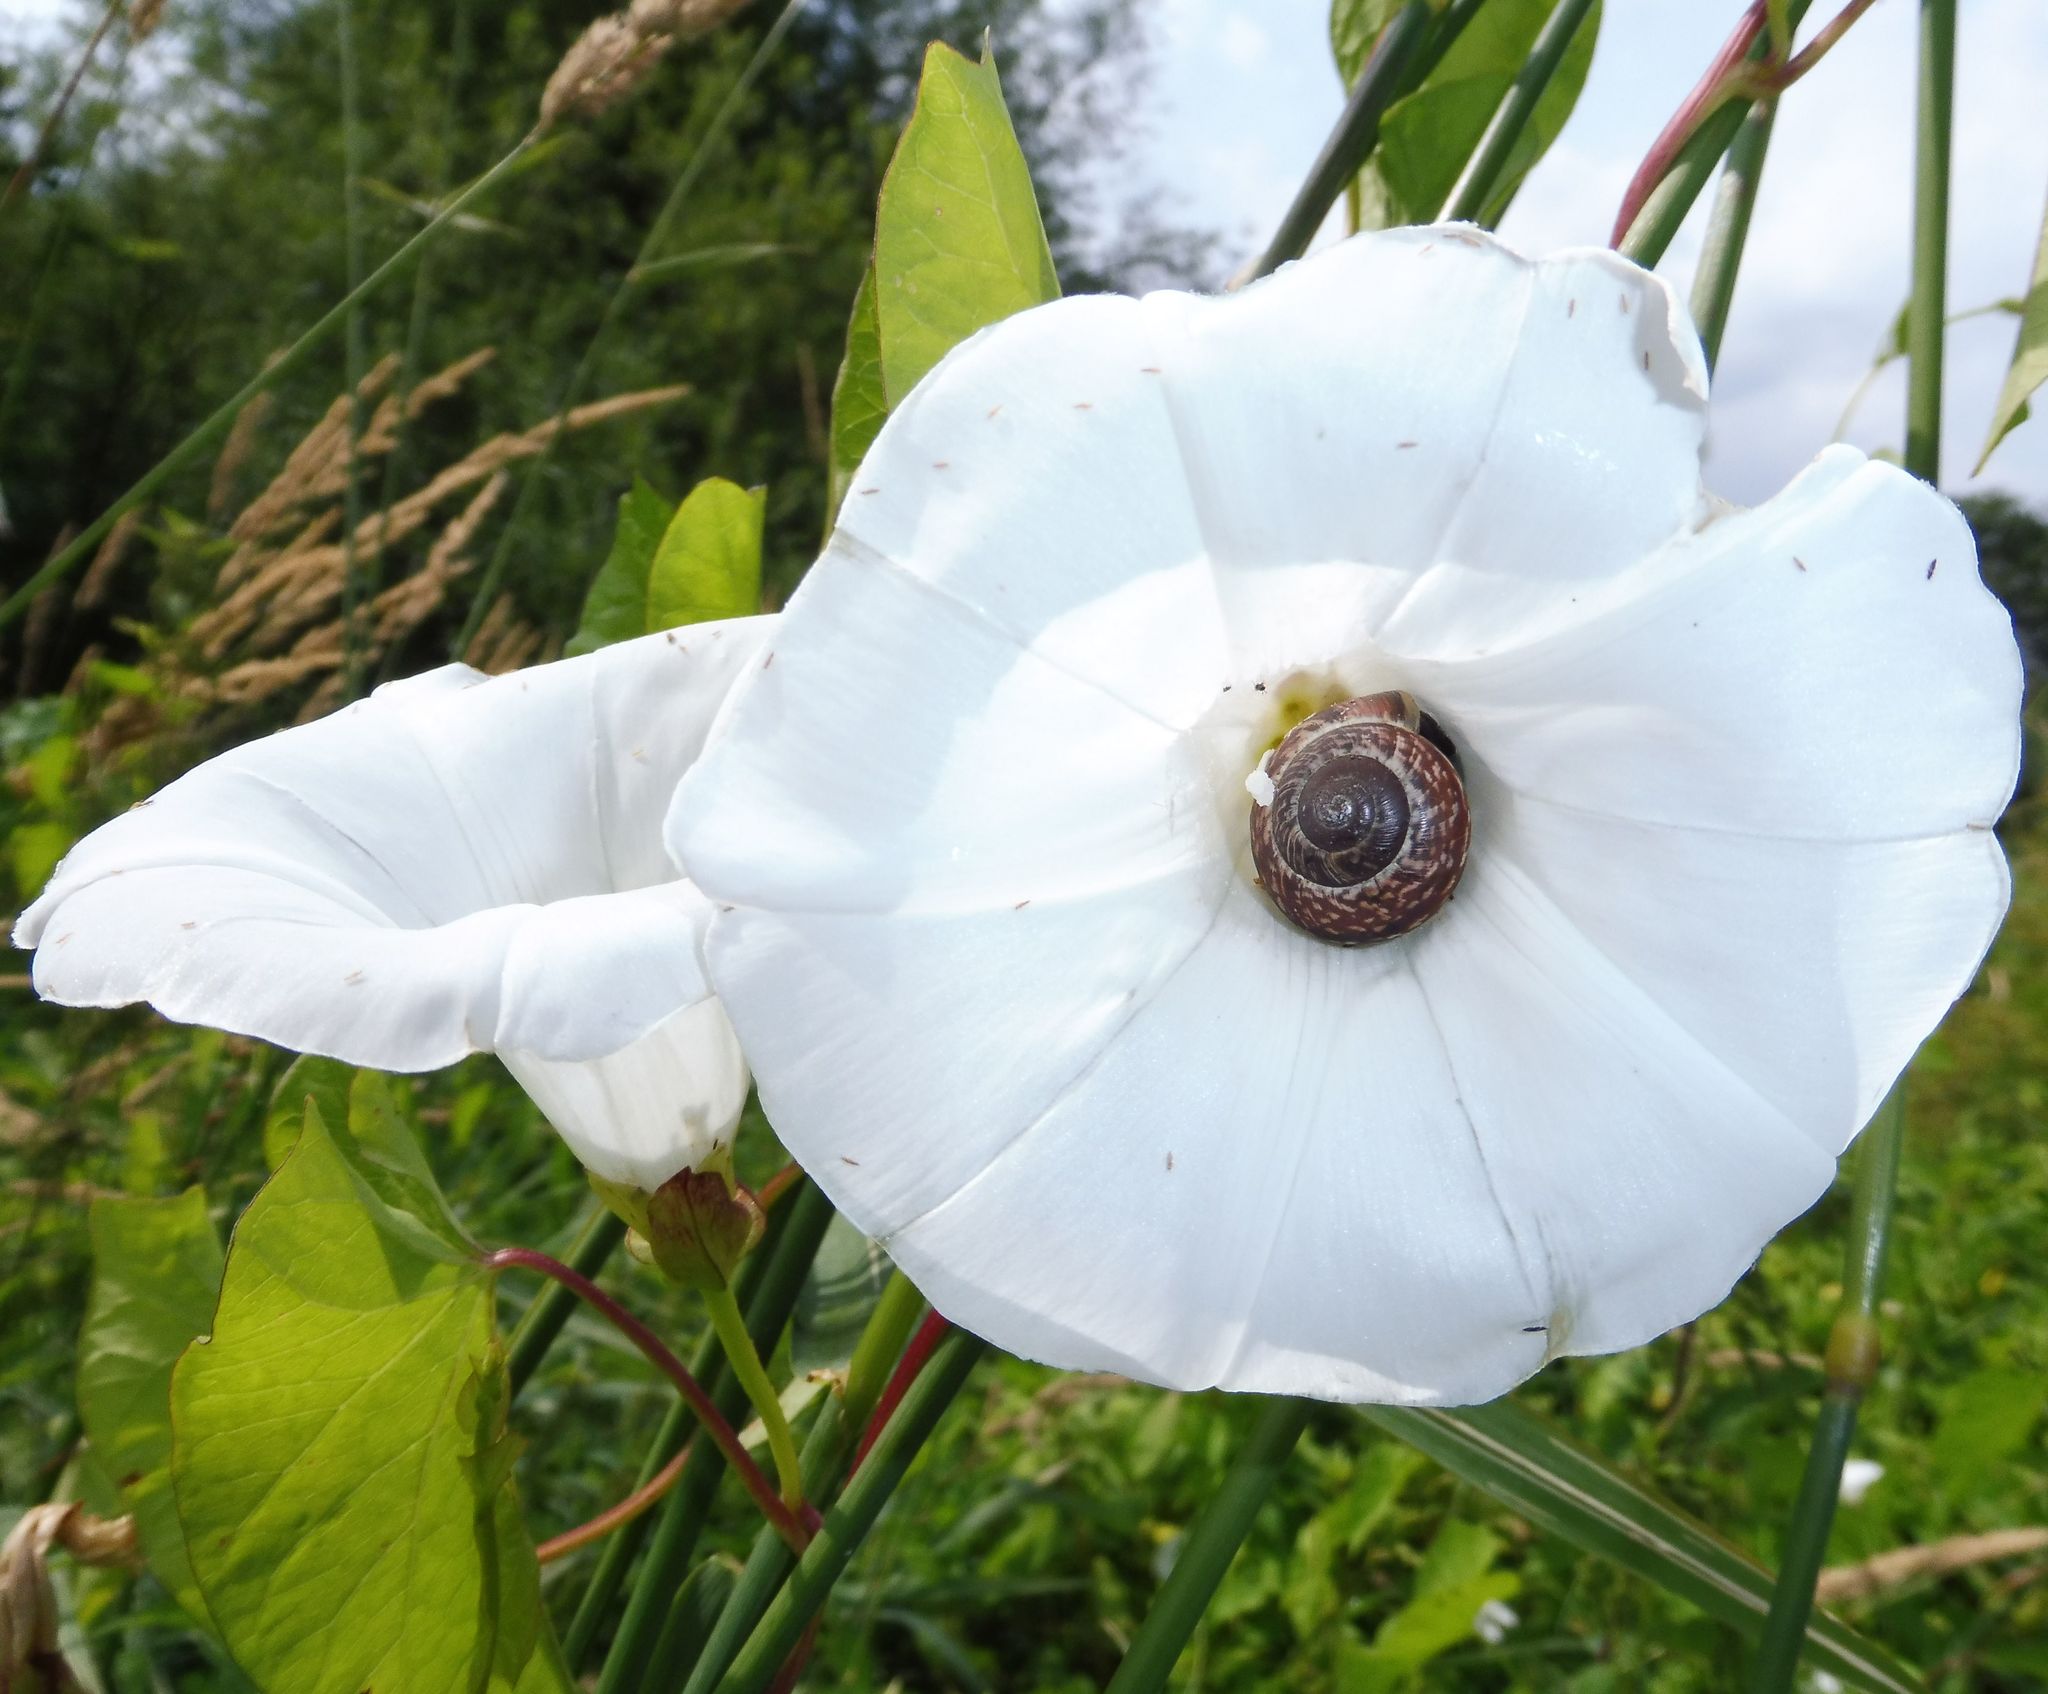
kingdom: Animalia
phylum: Mollusca
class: Gastropoda
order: Stylommatophora
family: Helicidae
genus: Arianta
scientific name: Arianta arbustorum
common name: Copse snail
